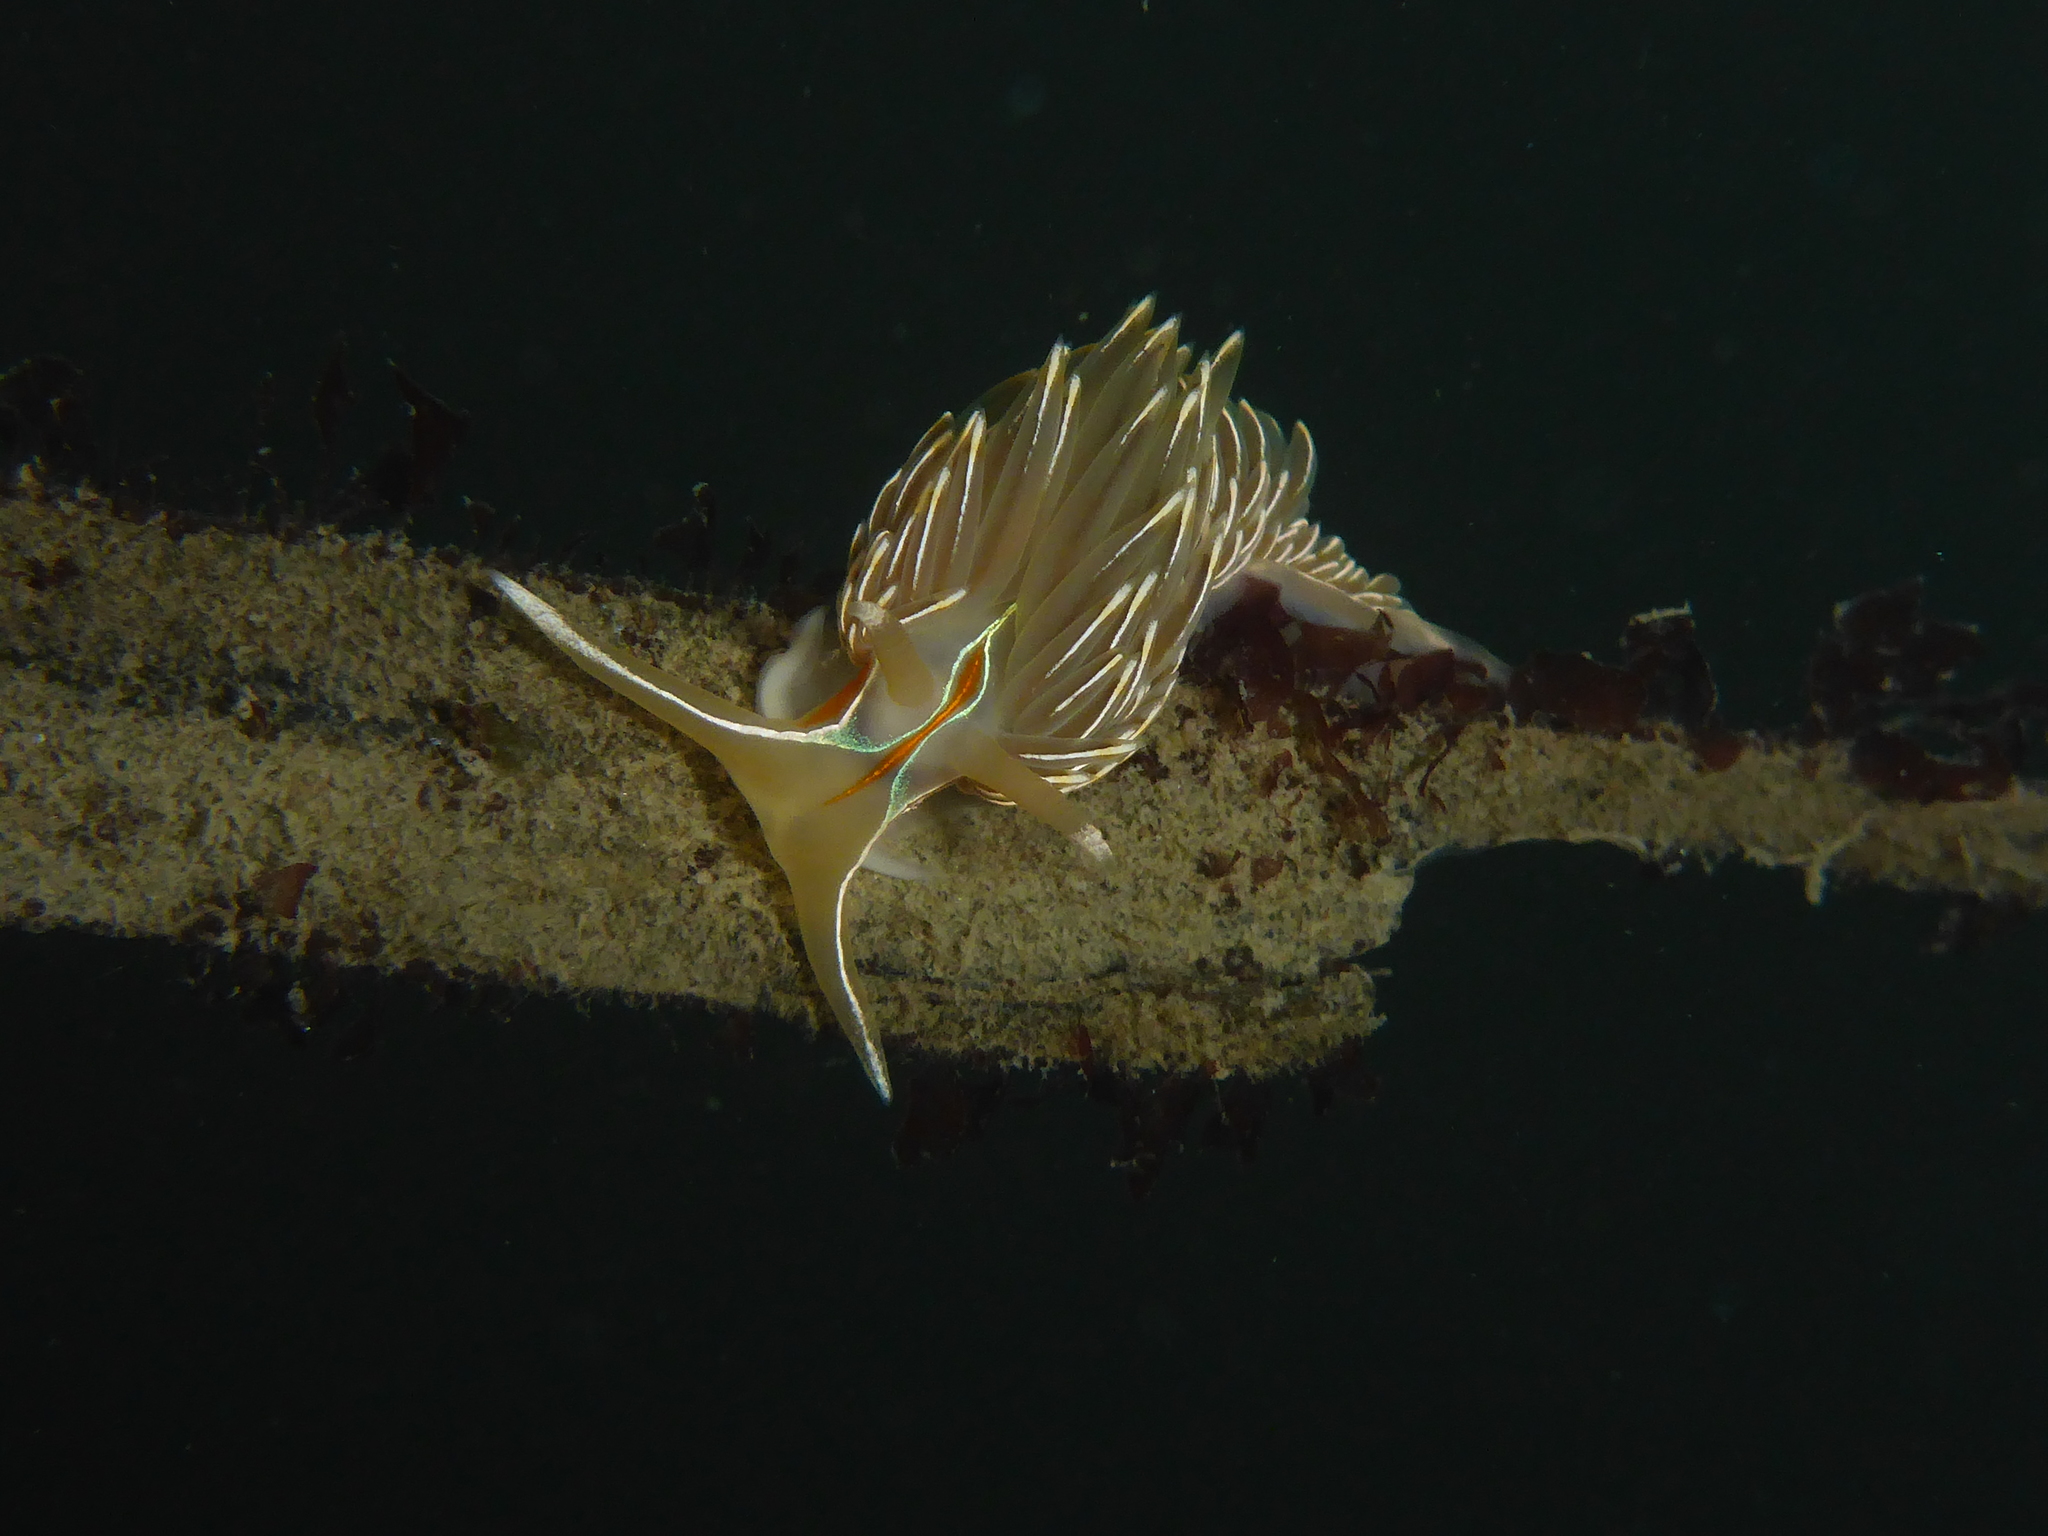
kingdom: Animalia
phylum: Mollusca
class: Gastropoda
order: Nudibranchia
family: Myrrhinidae
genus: Hermissenda
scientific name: Hermissenda crassicornis
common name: Hermissenda
